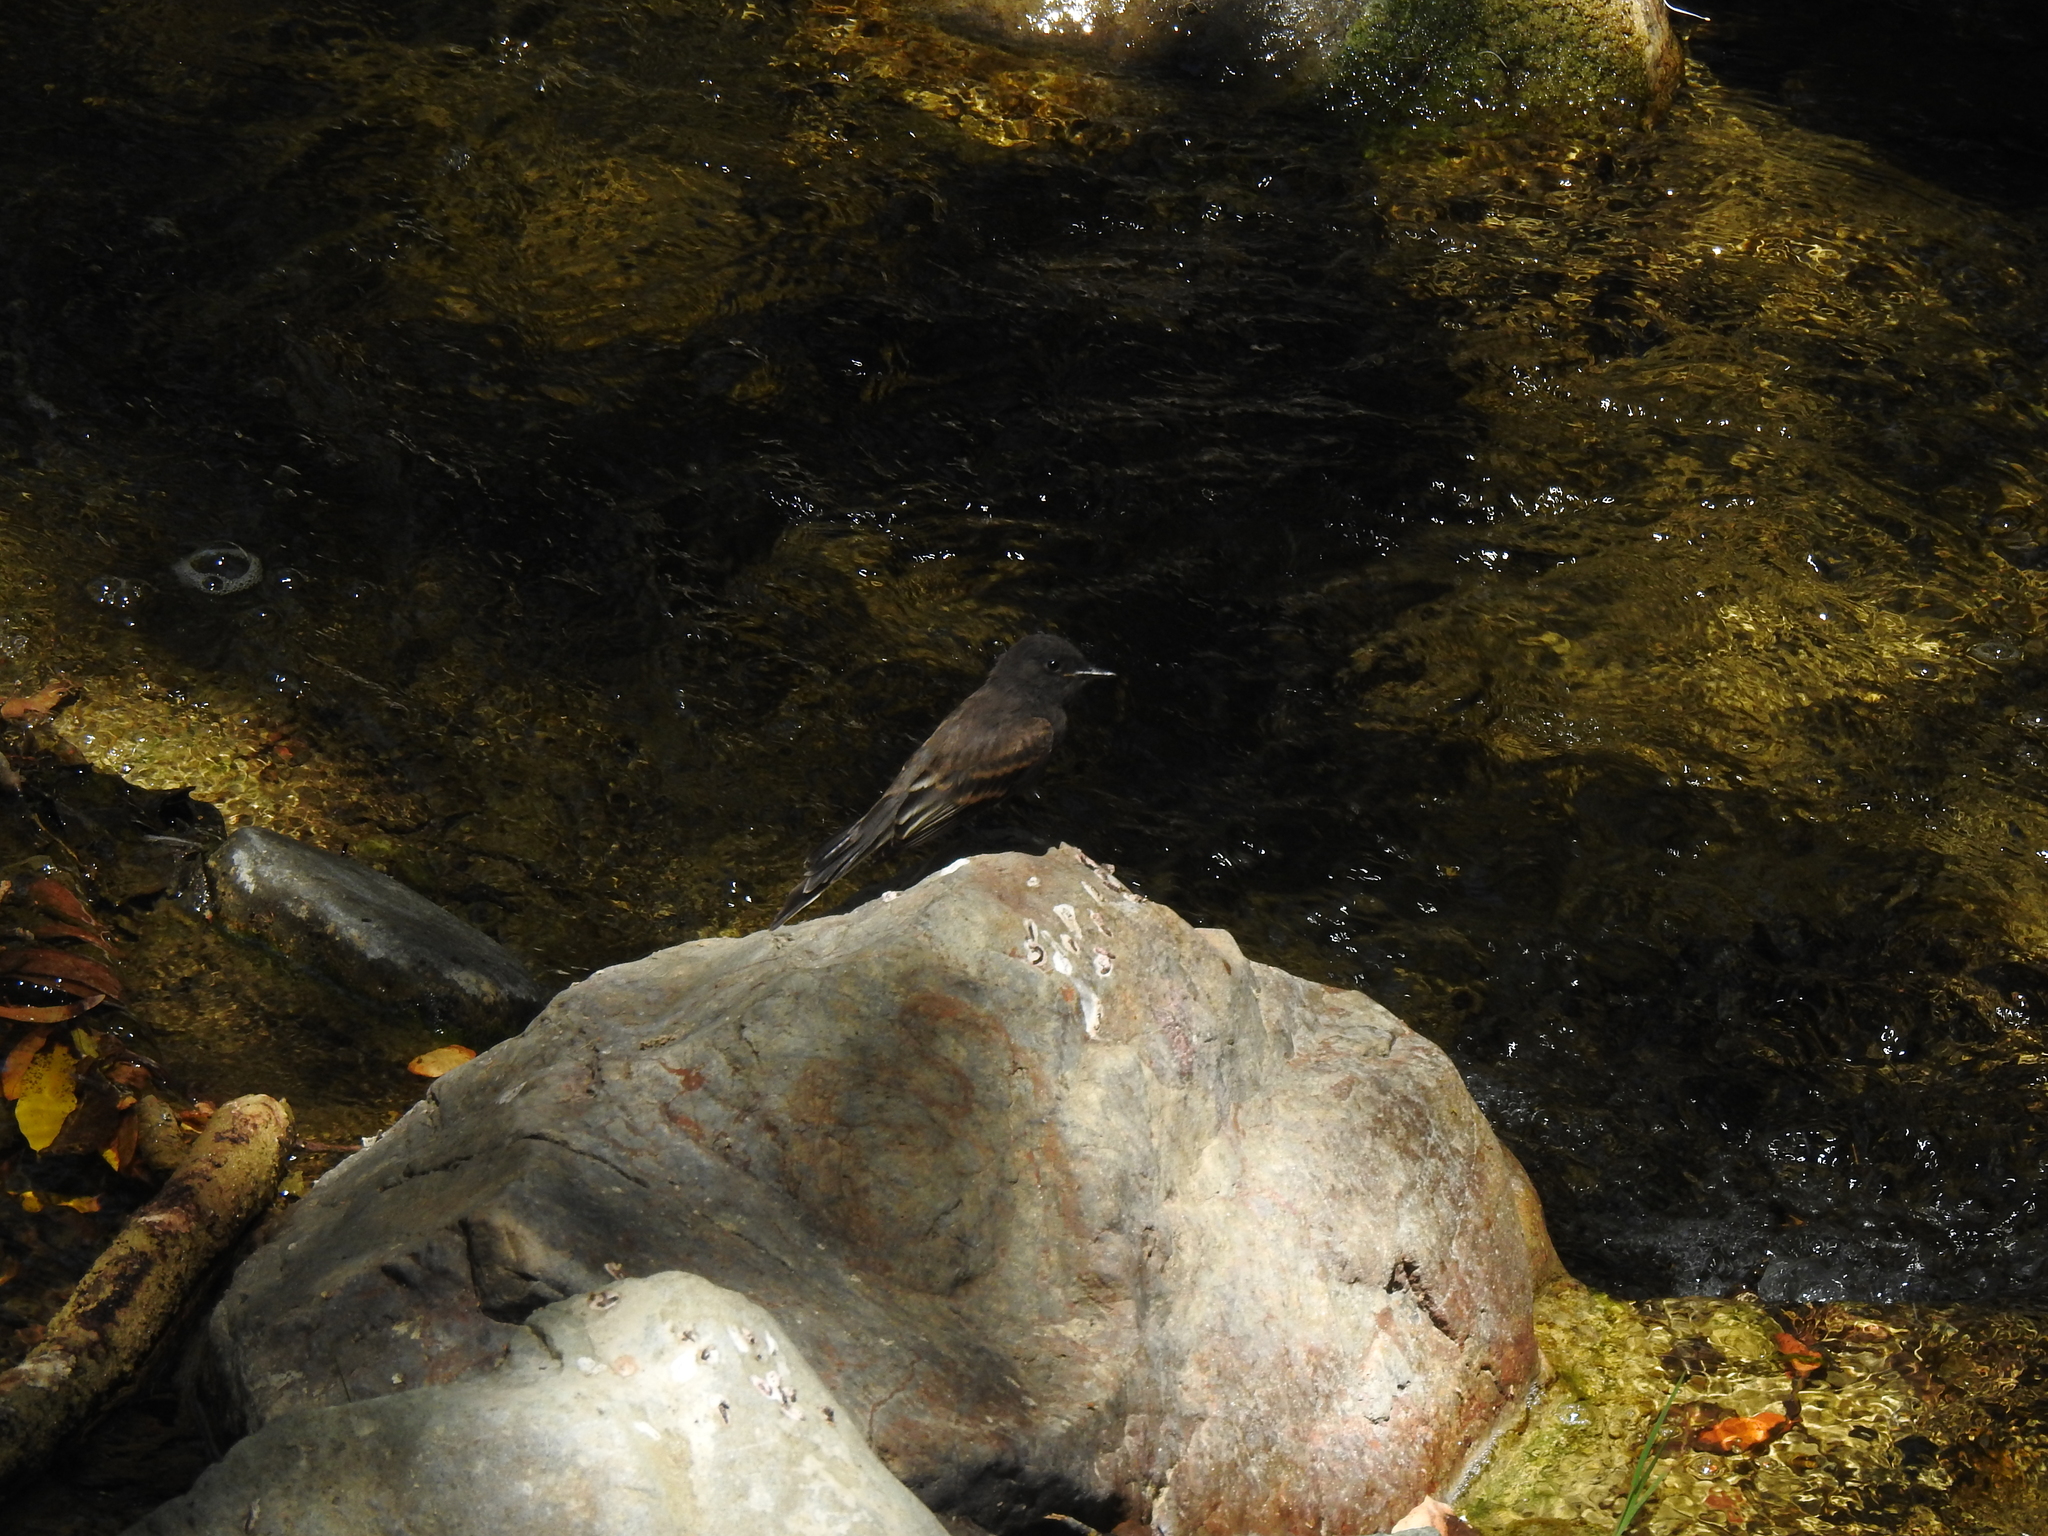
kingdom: Animalia
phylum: Chordata
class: Aves
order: Passeriformes
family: Tyrannidae
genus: Sayornis
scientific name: Sayornis nigricans
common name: Black phoebe
